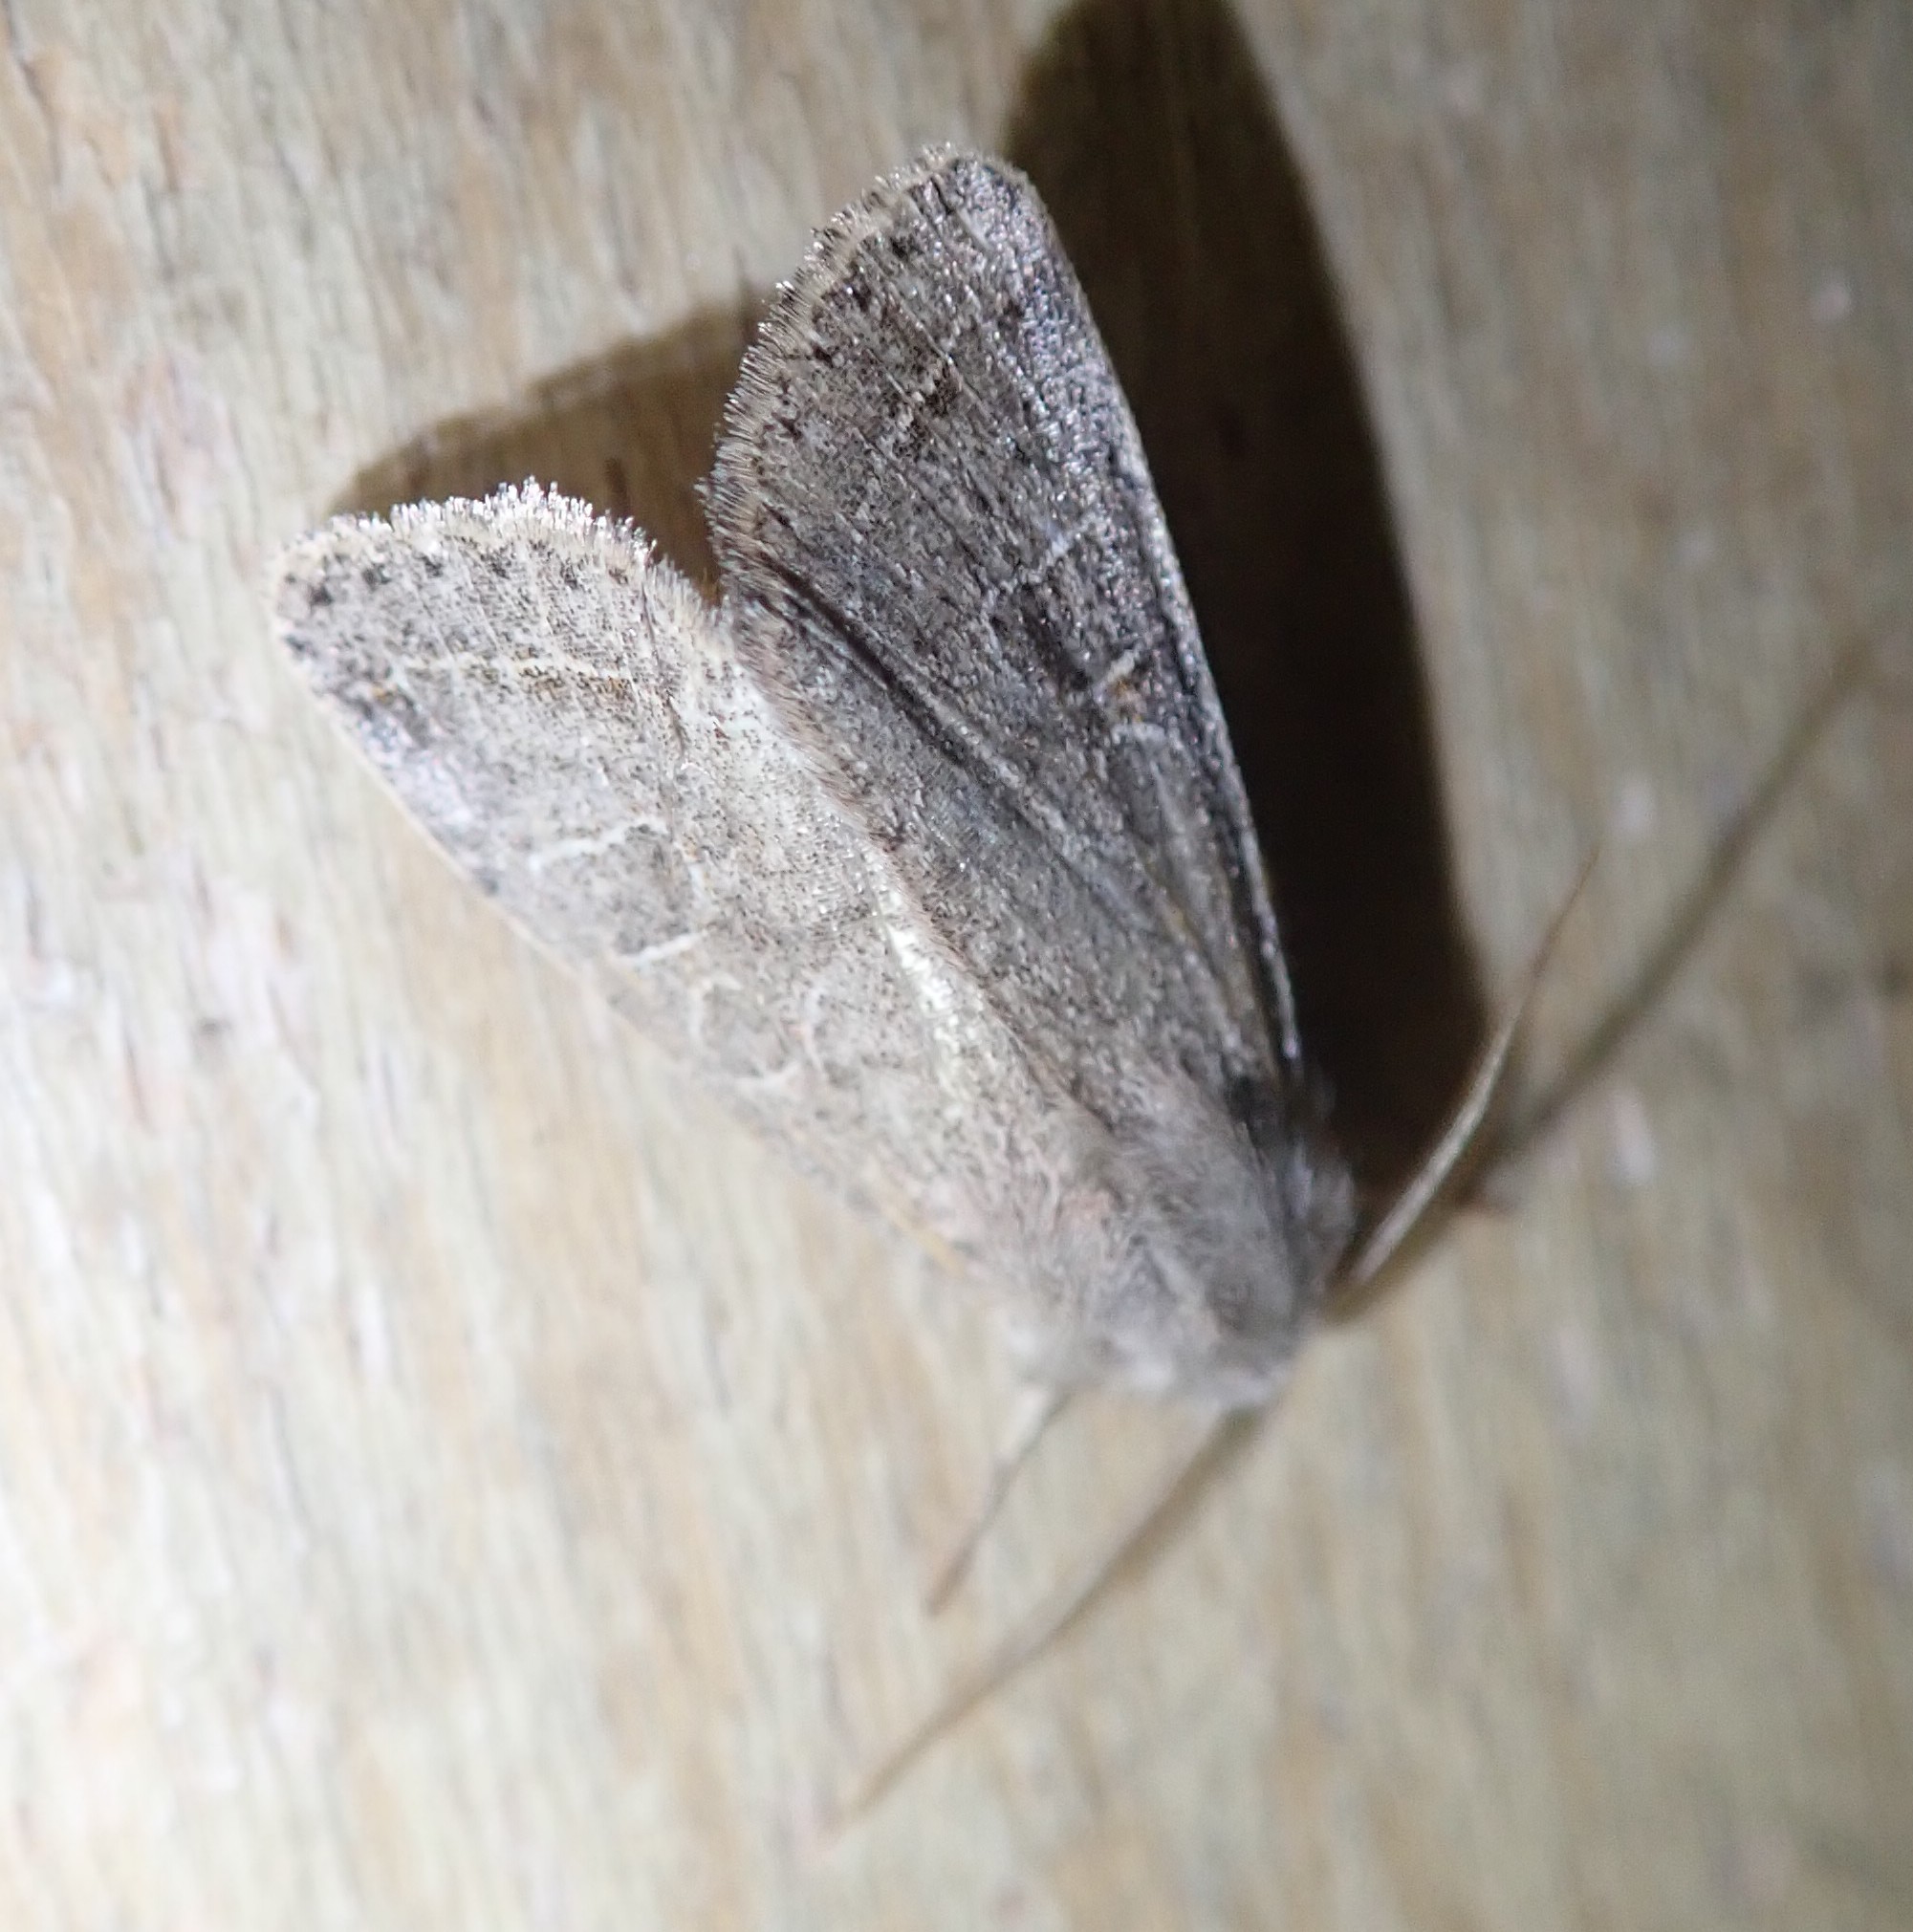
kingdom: Animalia
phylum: Arthropoda
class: Insecta
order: Lepidoptera
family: Noctuidae
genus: Orthosia
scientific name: Orthosia cerasi
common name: Common quaker
